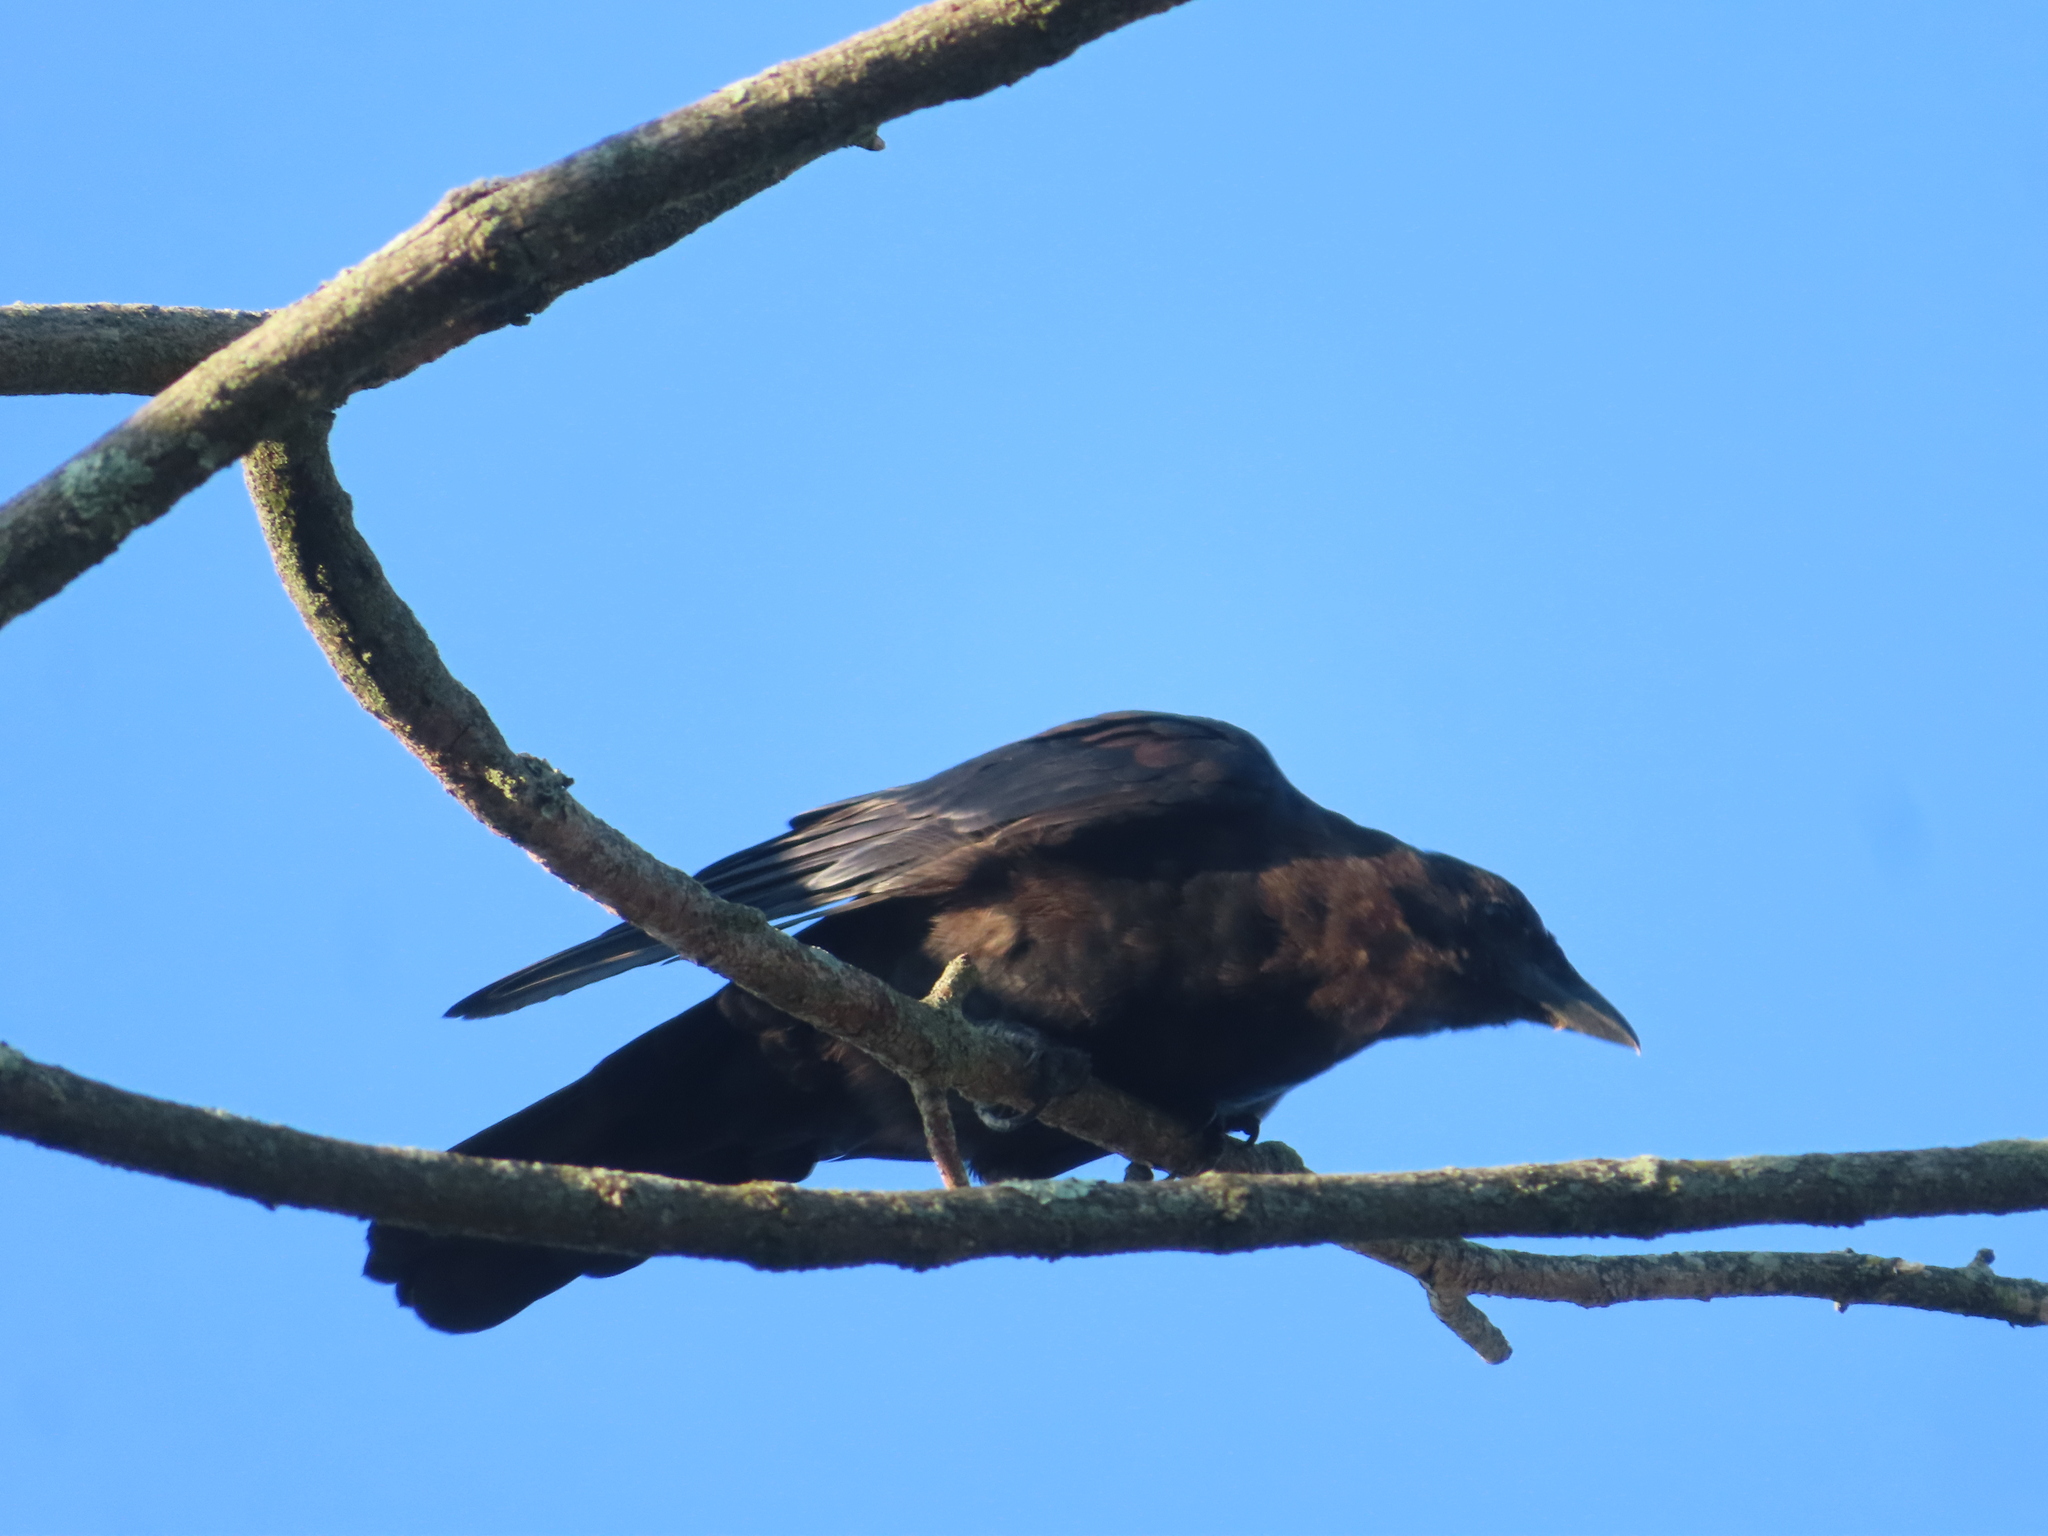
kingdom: Animalia
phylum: Chordata
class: Aves
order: Passeriformes
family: Corvidae
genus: Corvus
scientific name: Corvus brachyrhynchos
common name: American crow
